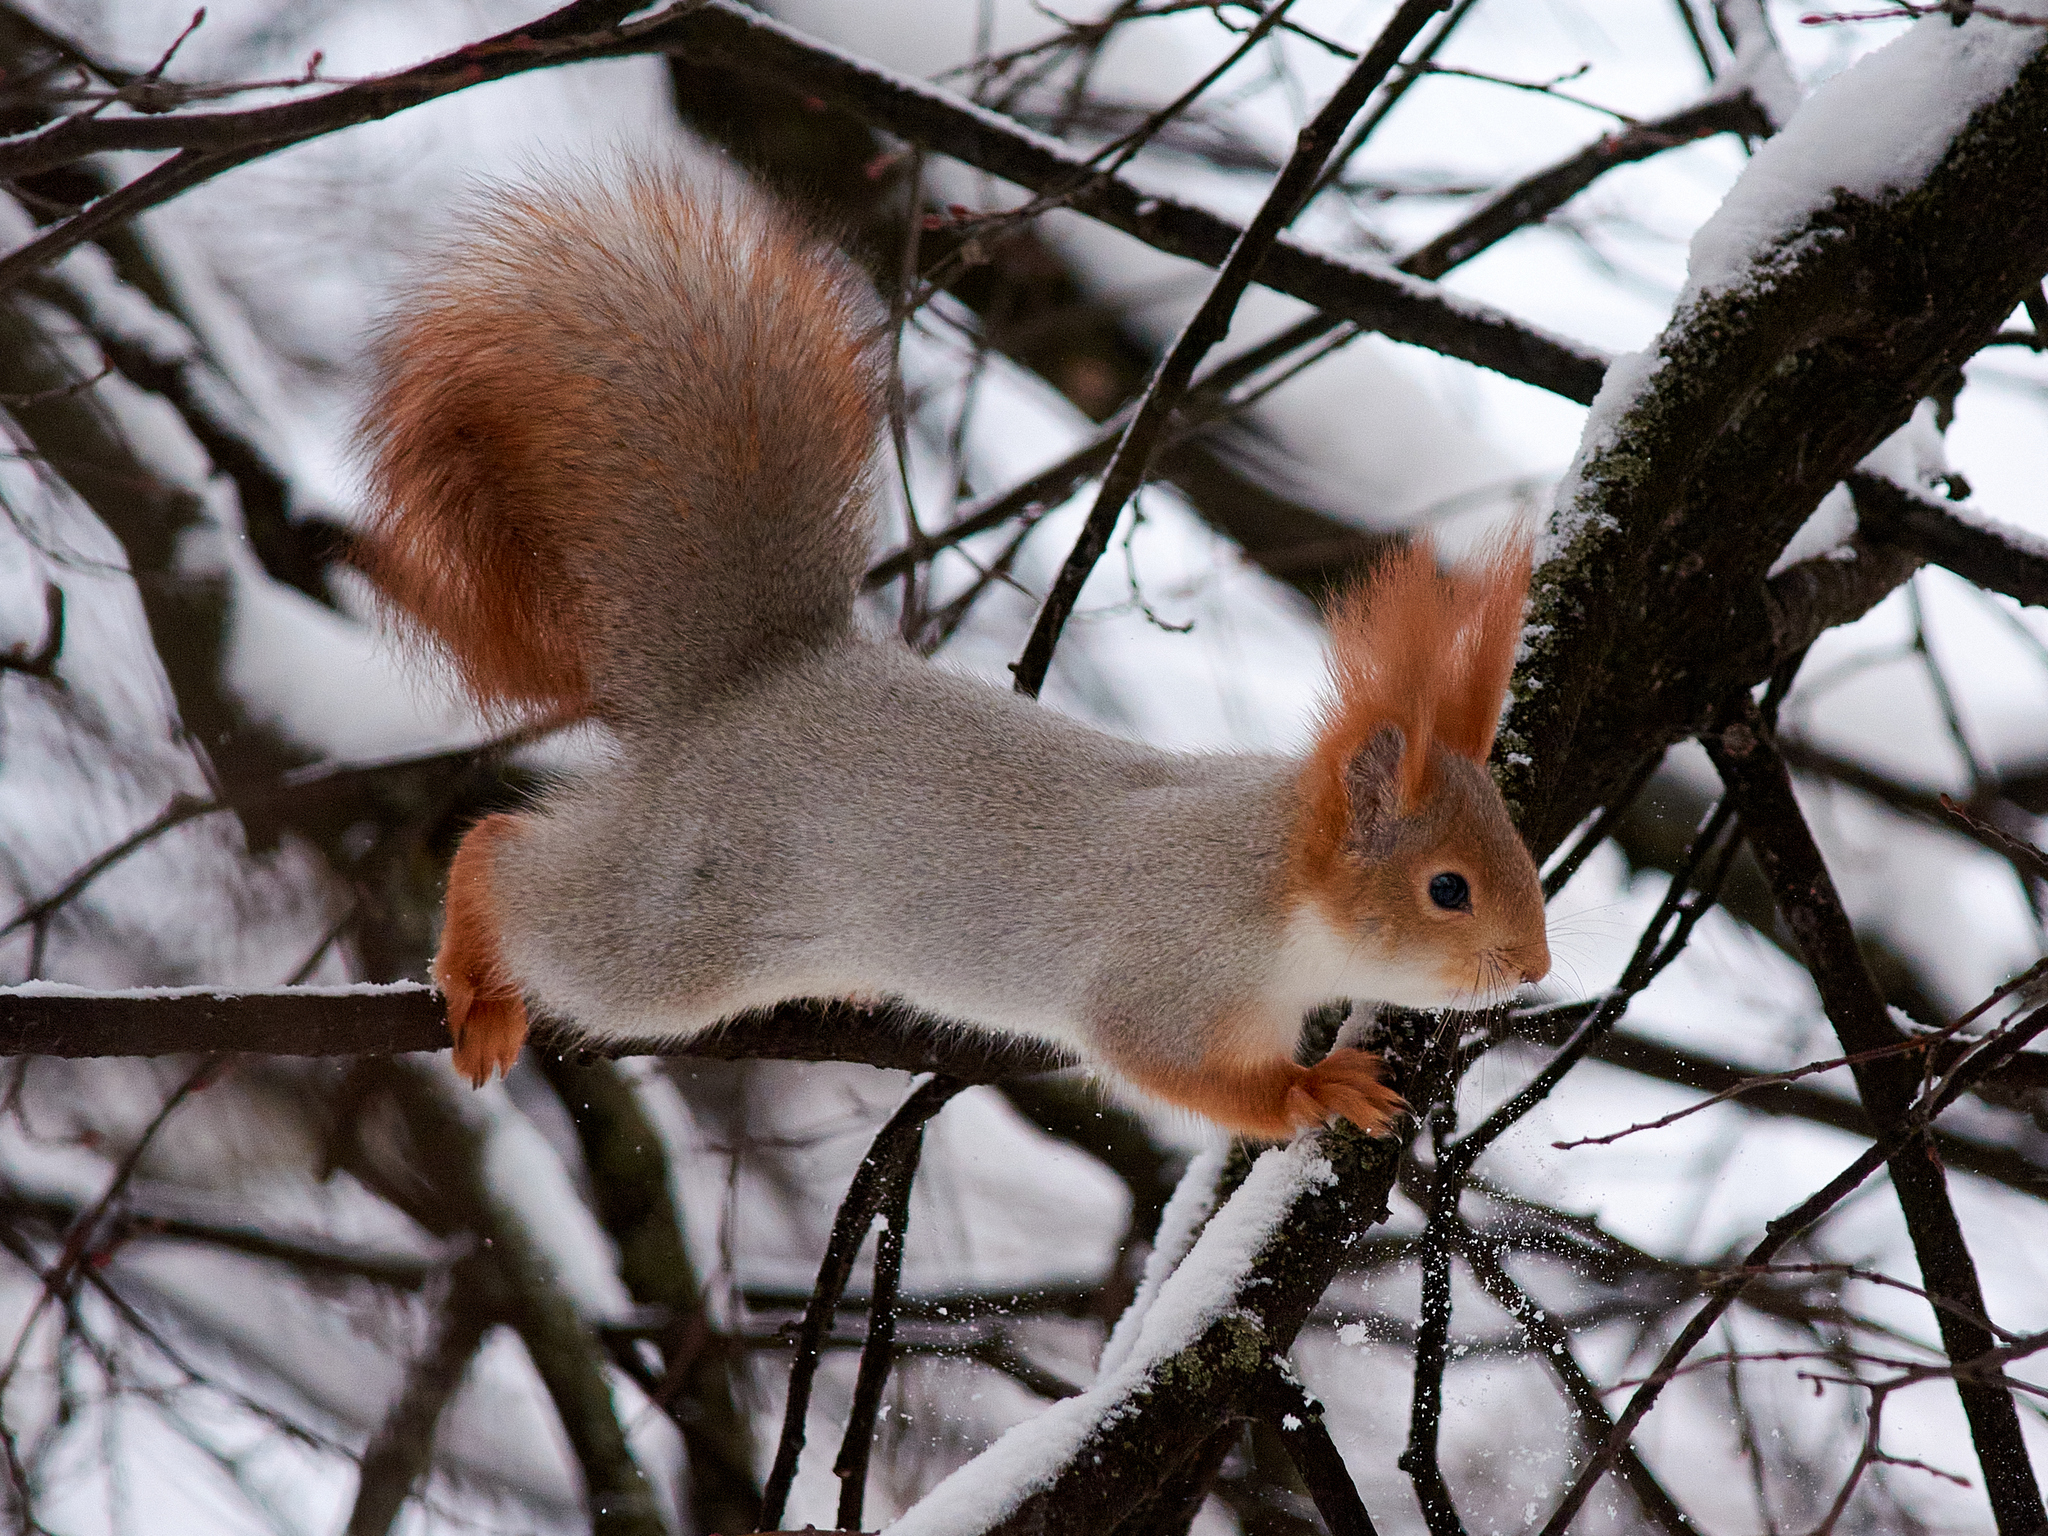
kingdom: Animalia
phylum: Chordata
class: Mammalia
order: Rodentia
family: Sciuridae
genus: Sciurus
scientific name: Sciurus vulgaris
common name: Eurasian red squirrel
